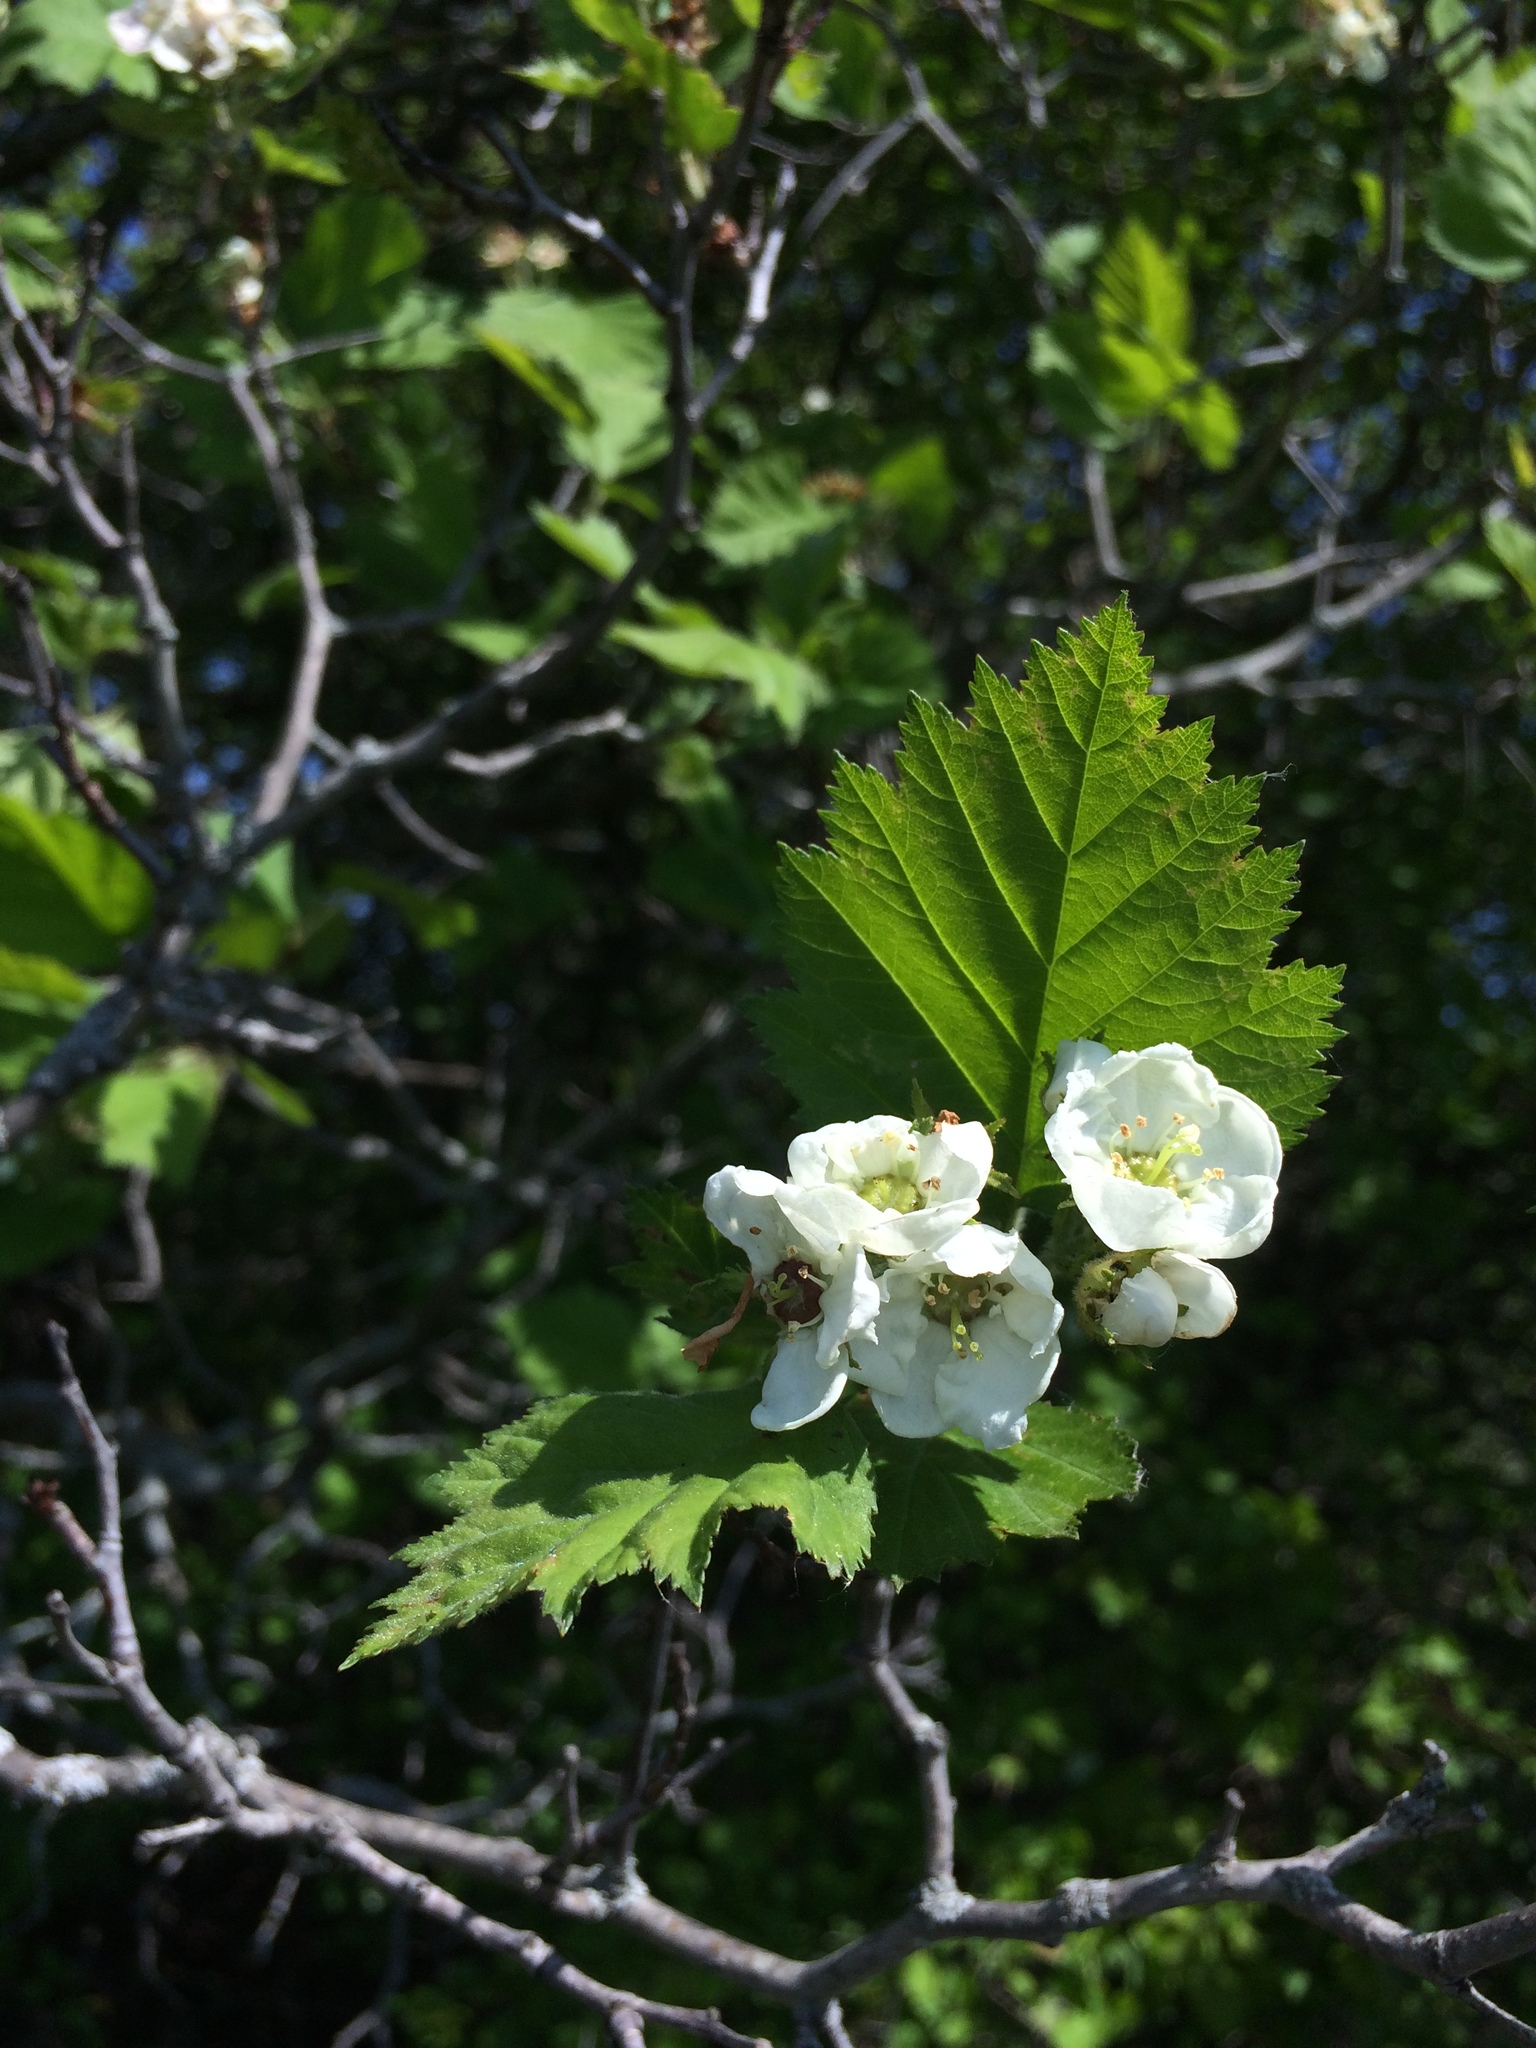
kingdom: Plantae
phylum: Tracheophyta
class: Magnoliopsida
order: Rosales
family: Rosaceae
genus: Crataegus
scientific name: Crataegus submollis
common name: Hairy cockspurthorn
